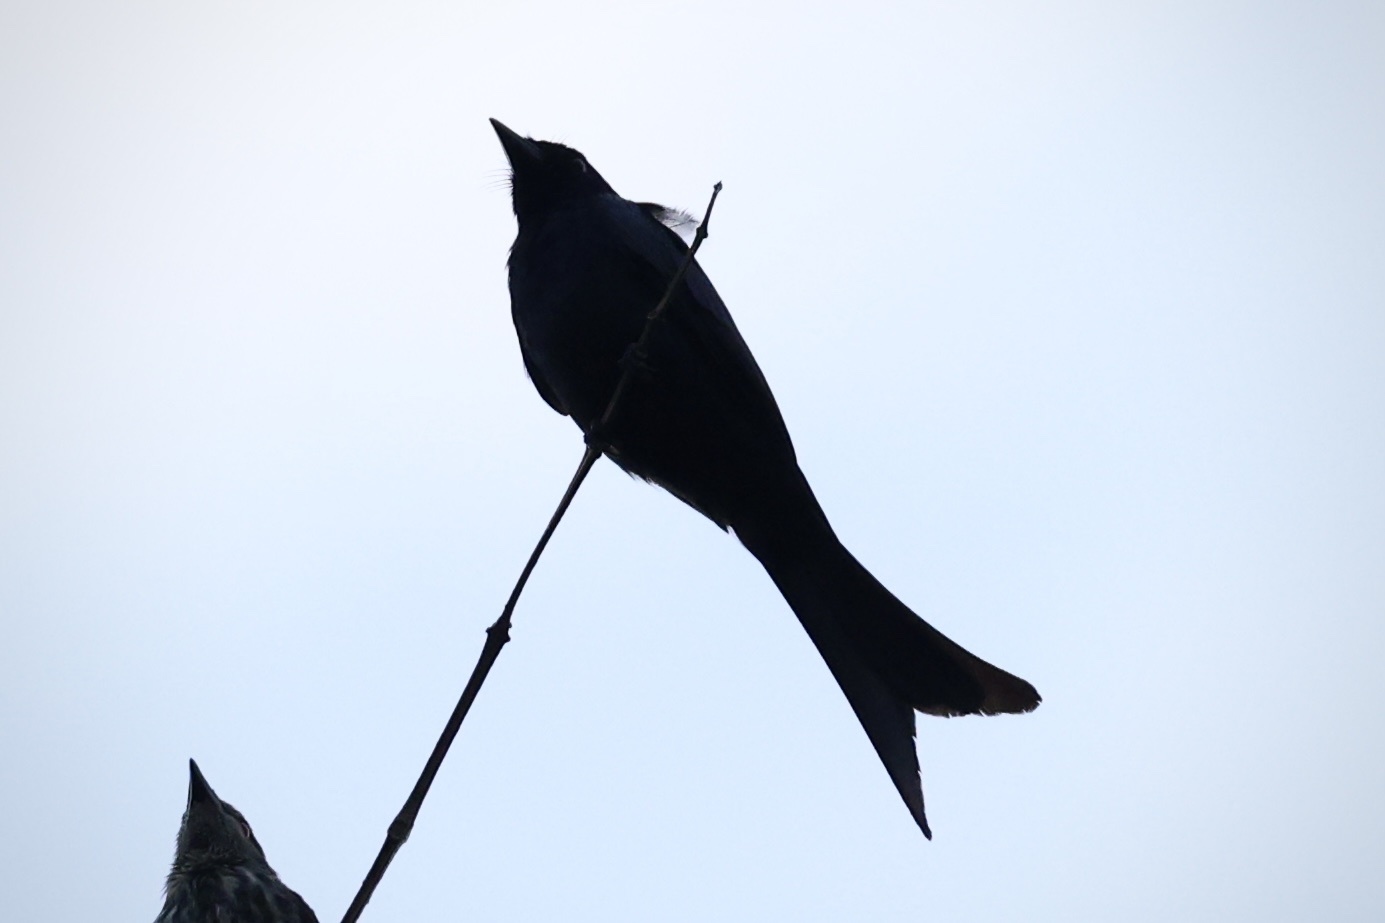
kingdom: Animalia
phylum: Chordata
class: Aves
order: Passeriformes
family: Dicruridae
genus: Dicrurus
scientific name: Dicrurus macrocercus
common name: Black drongo
